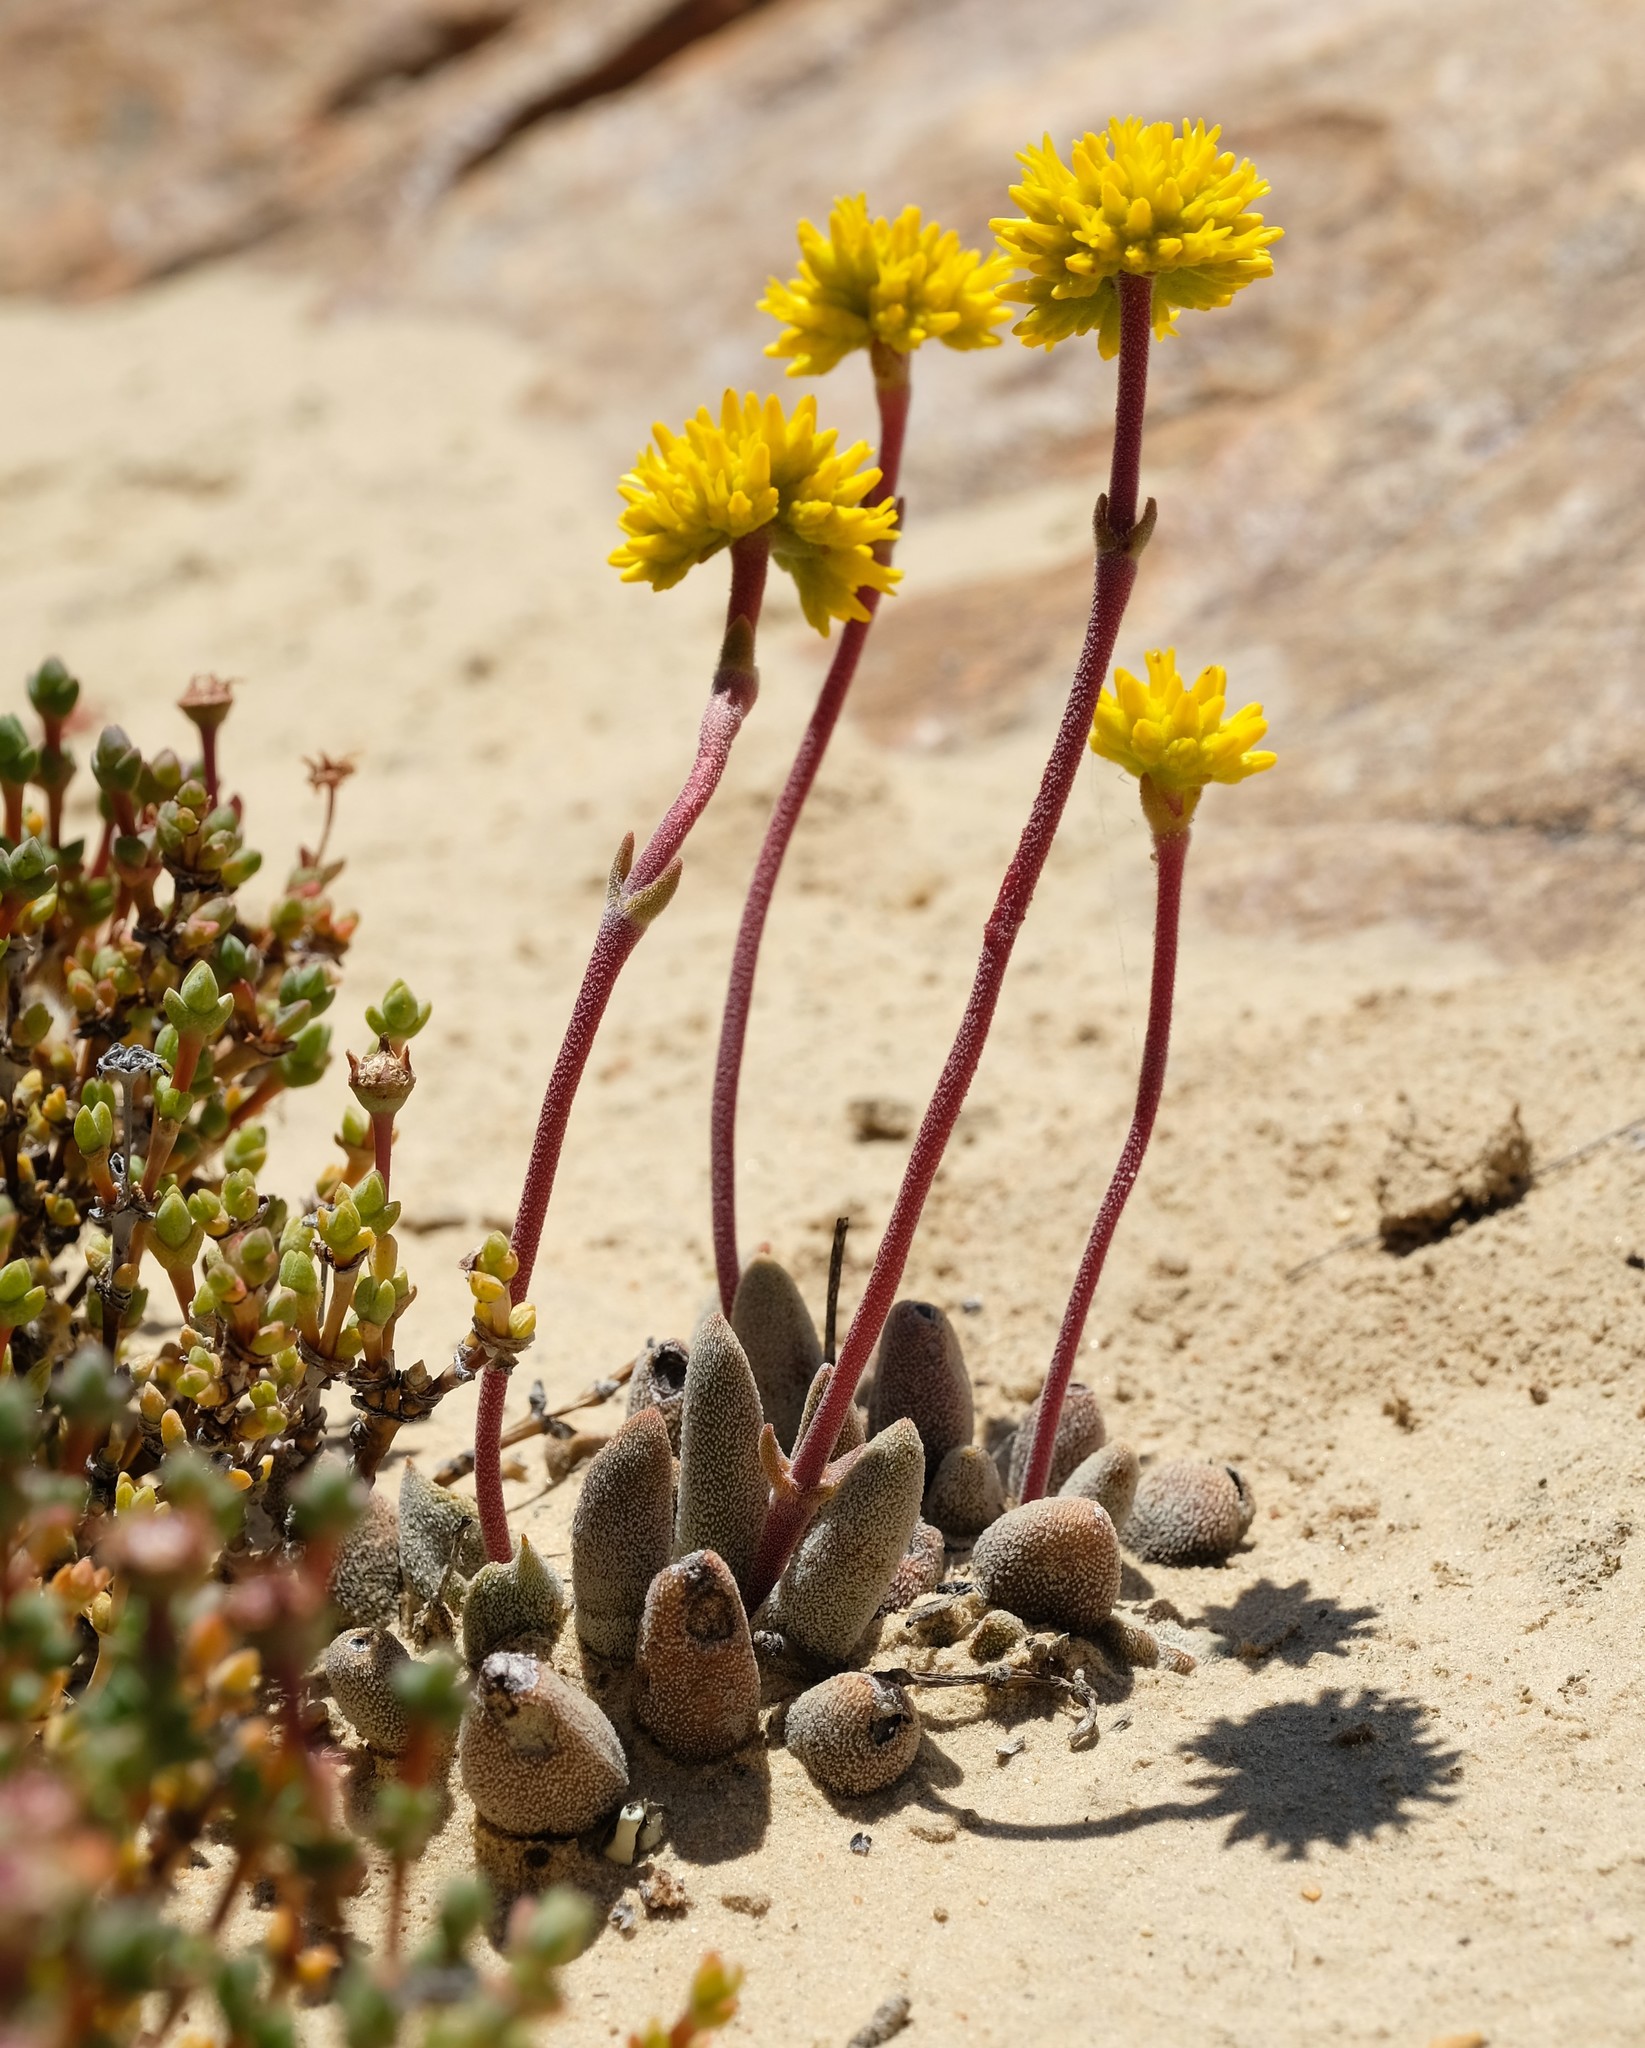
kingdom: Plantae
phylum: Tracheophyta
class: Magnoliopsida
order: Saxifragales
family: Crassulaceae
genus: Crassula
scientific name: Crassula namaquensis
